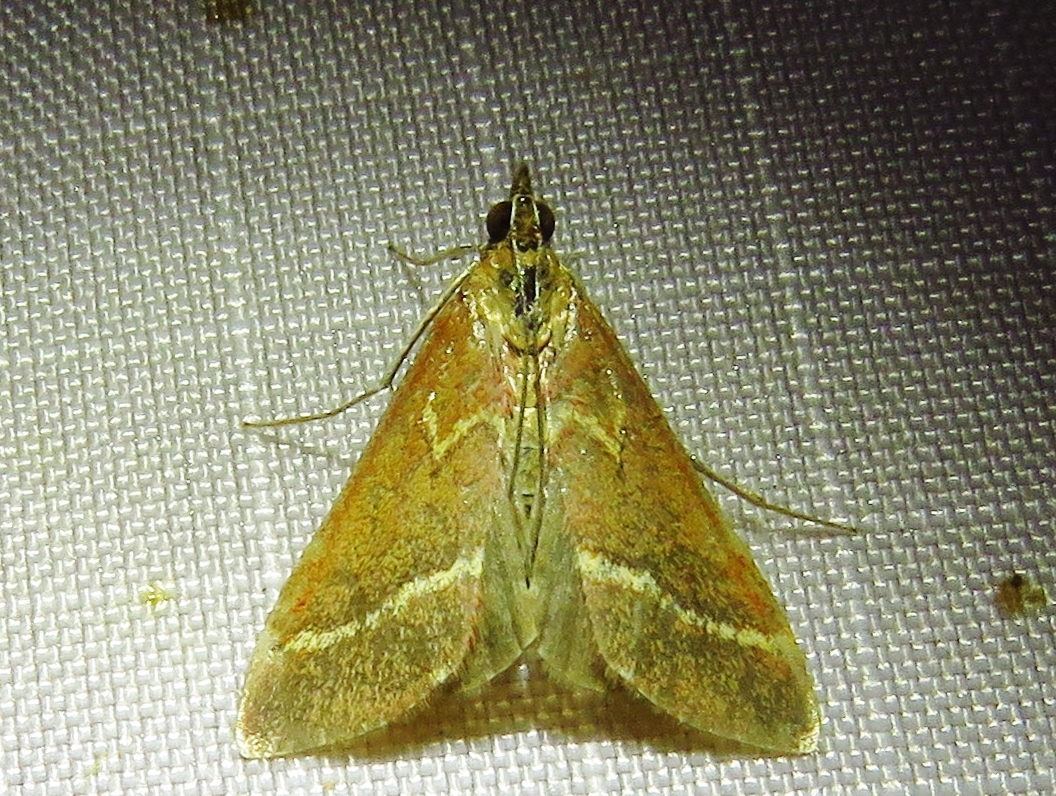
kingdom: Animalia
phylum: Arthropoda
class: Insecta
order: Lepidoptera
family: Crambidae
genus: Pyrausta
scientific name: Pyrausta volupialis
